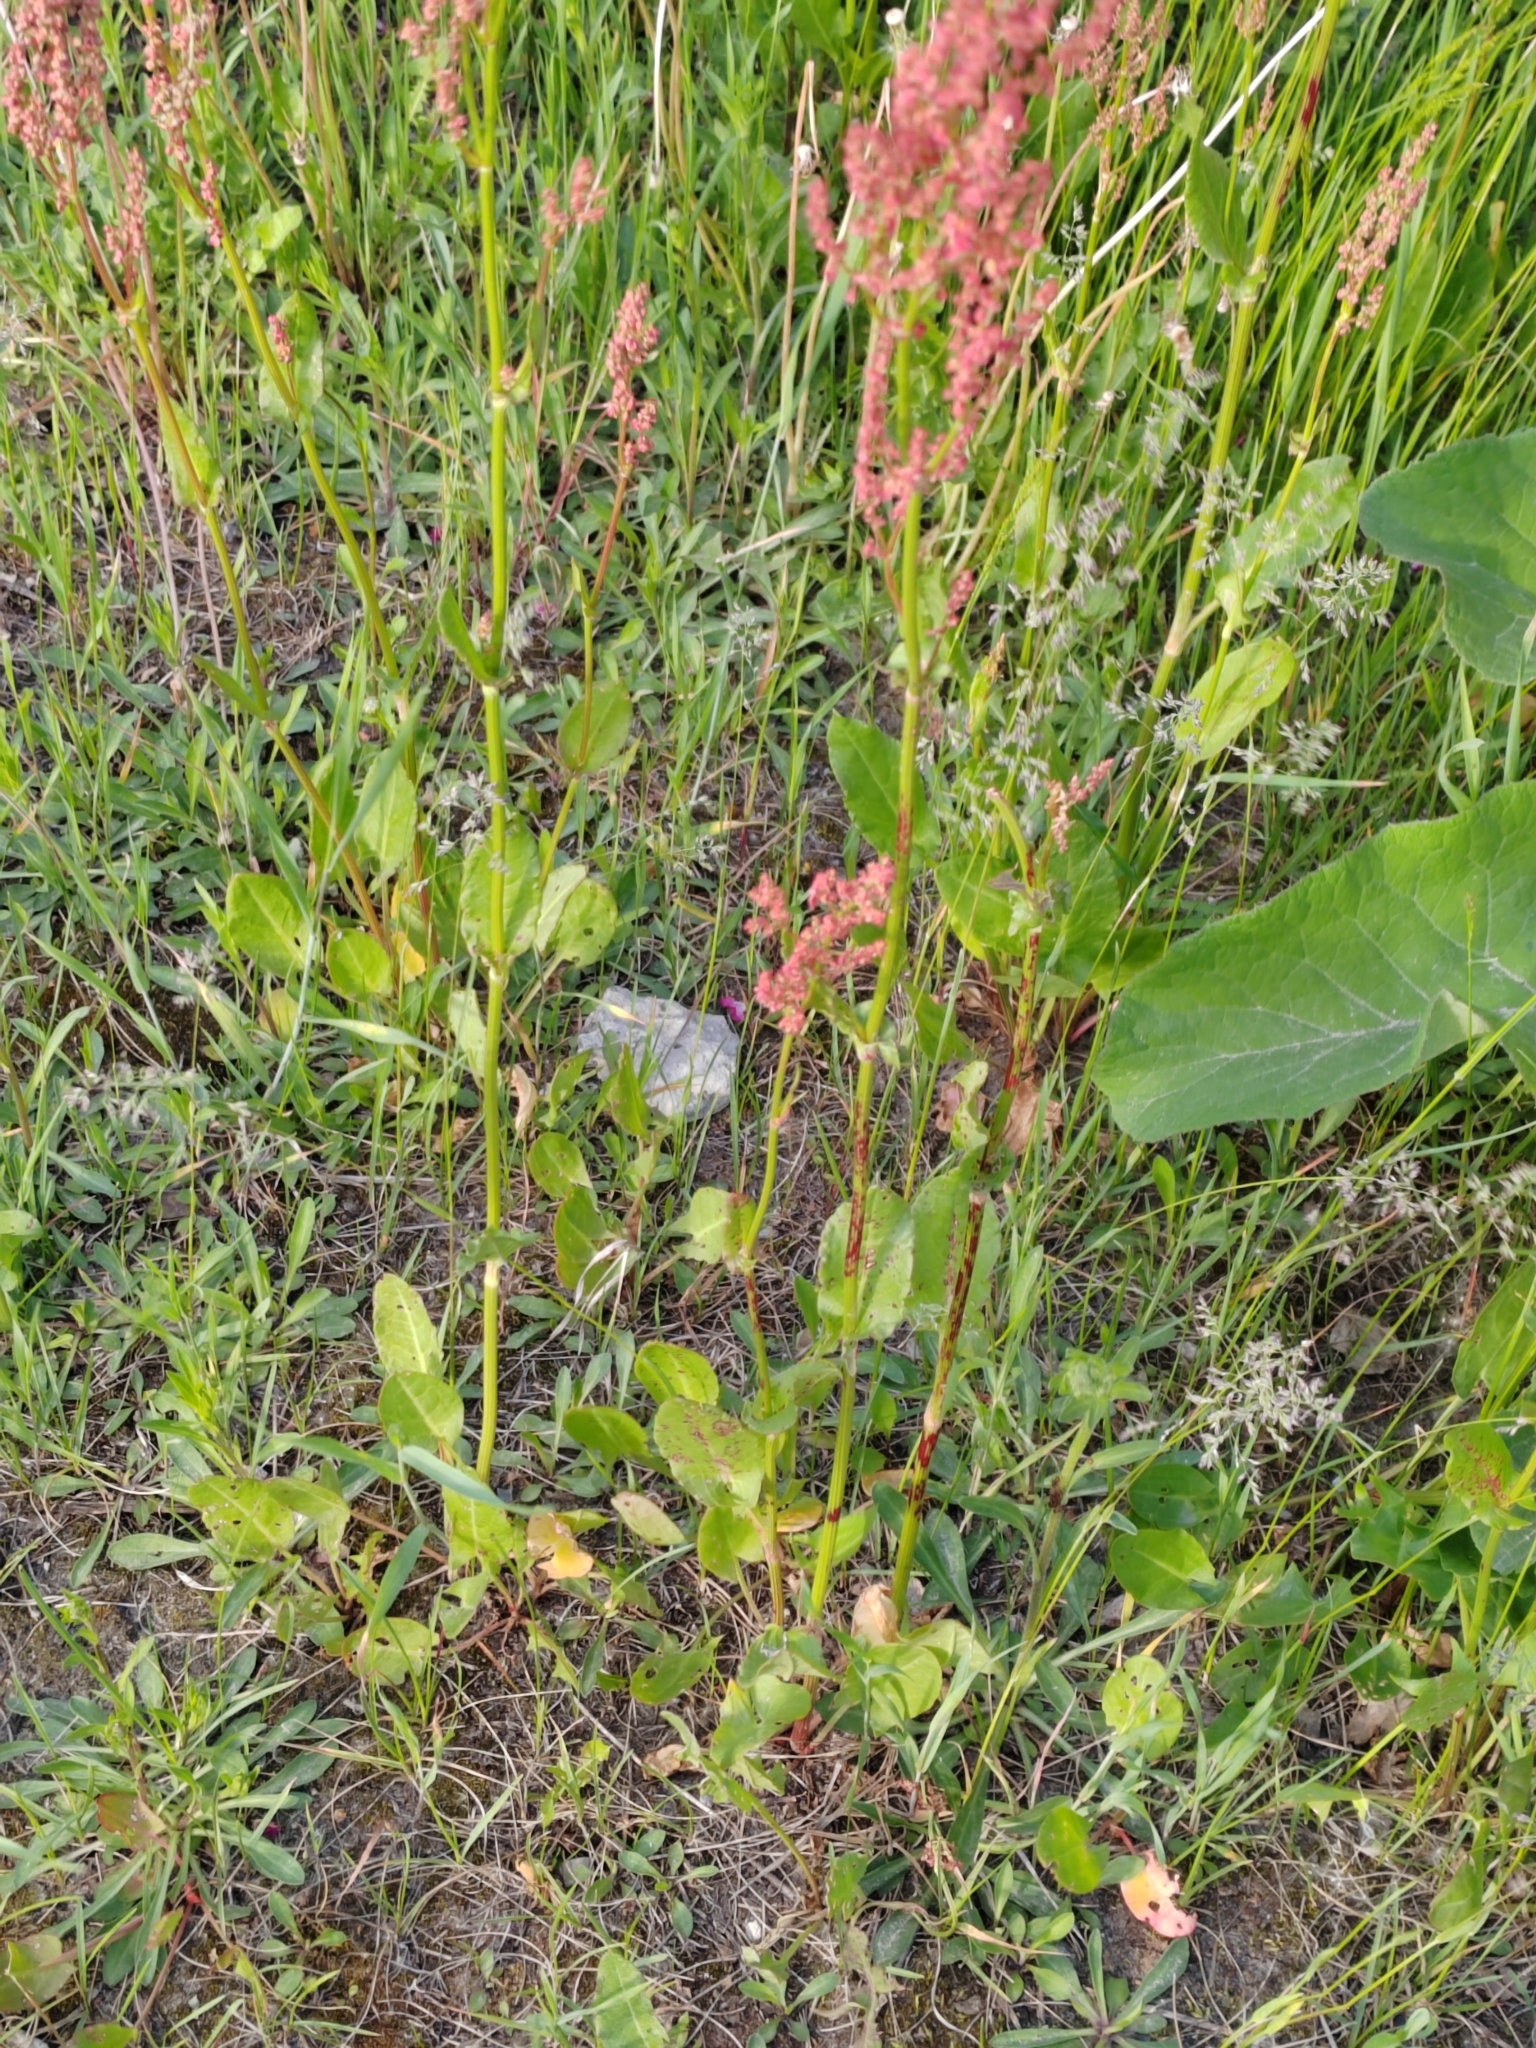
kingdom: Plantae
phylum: Tracheophyta
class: Magnoliopsida
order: Caryophyllales
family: Polygonaceae
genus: Rumex
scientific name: Rumex acetosella
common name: Common sheep sorrel
